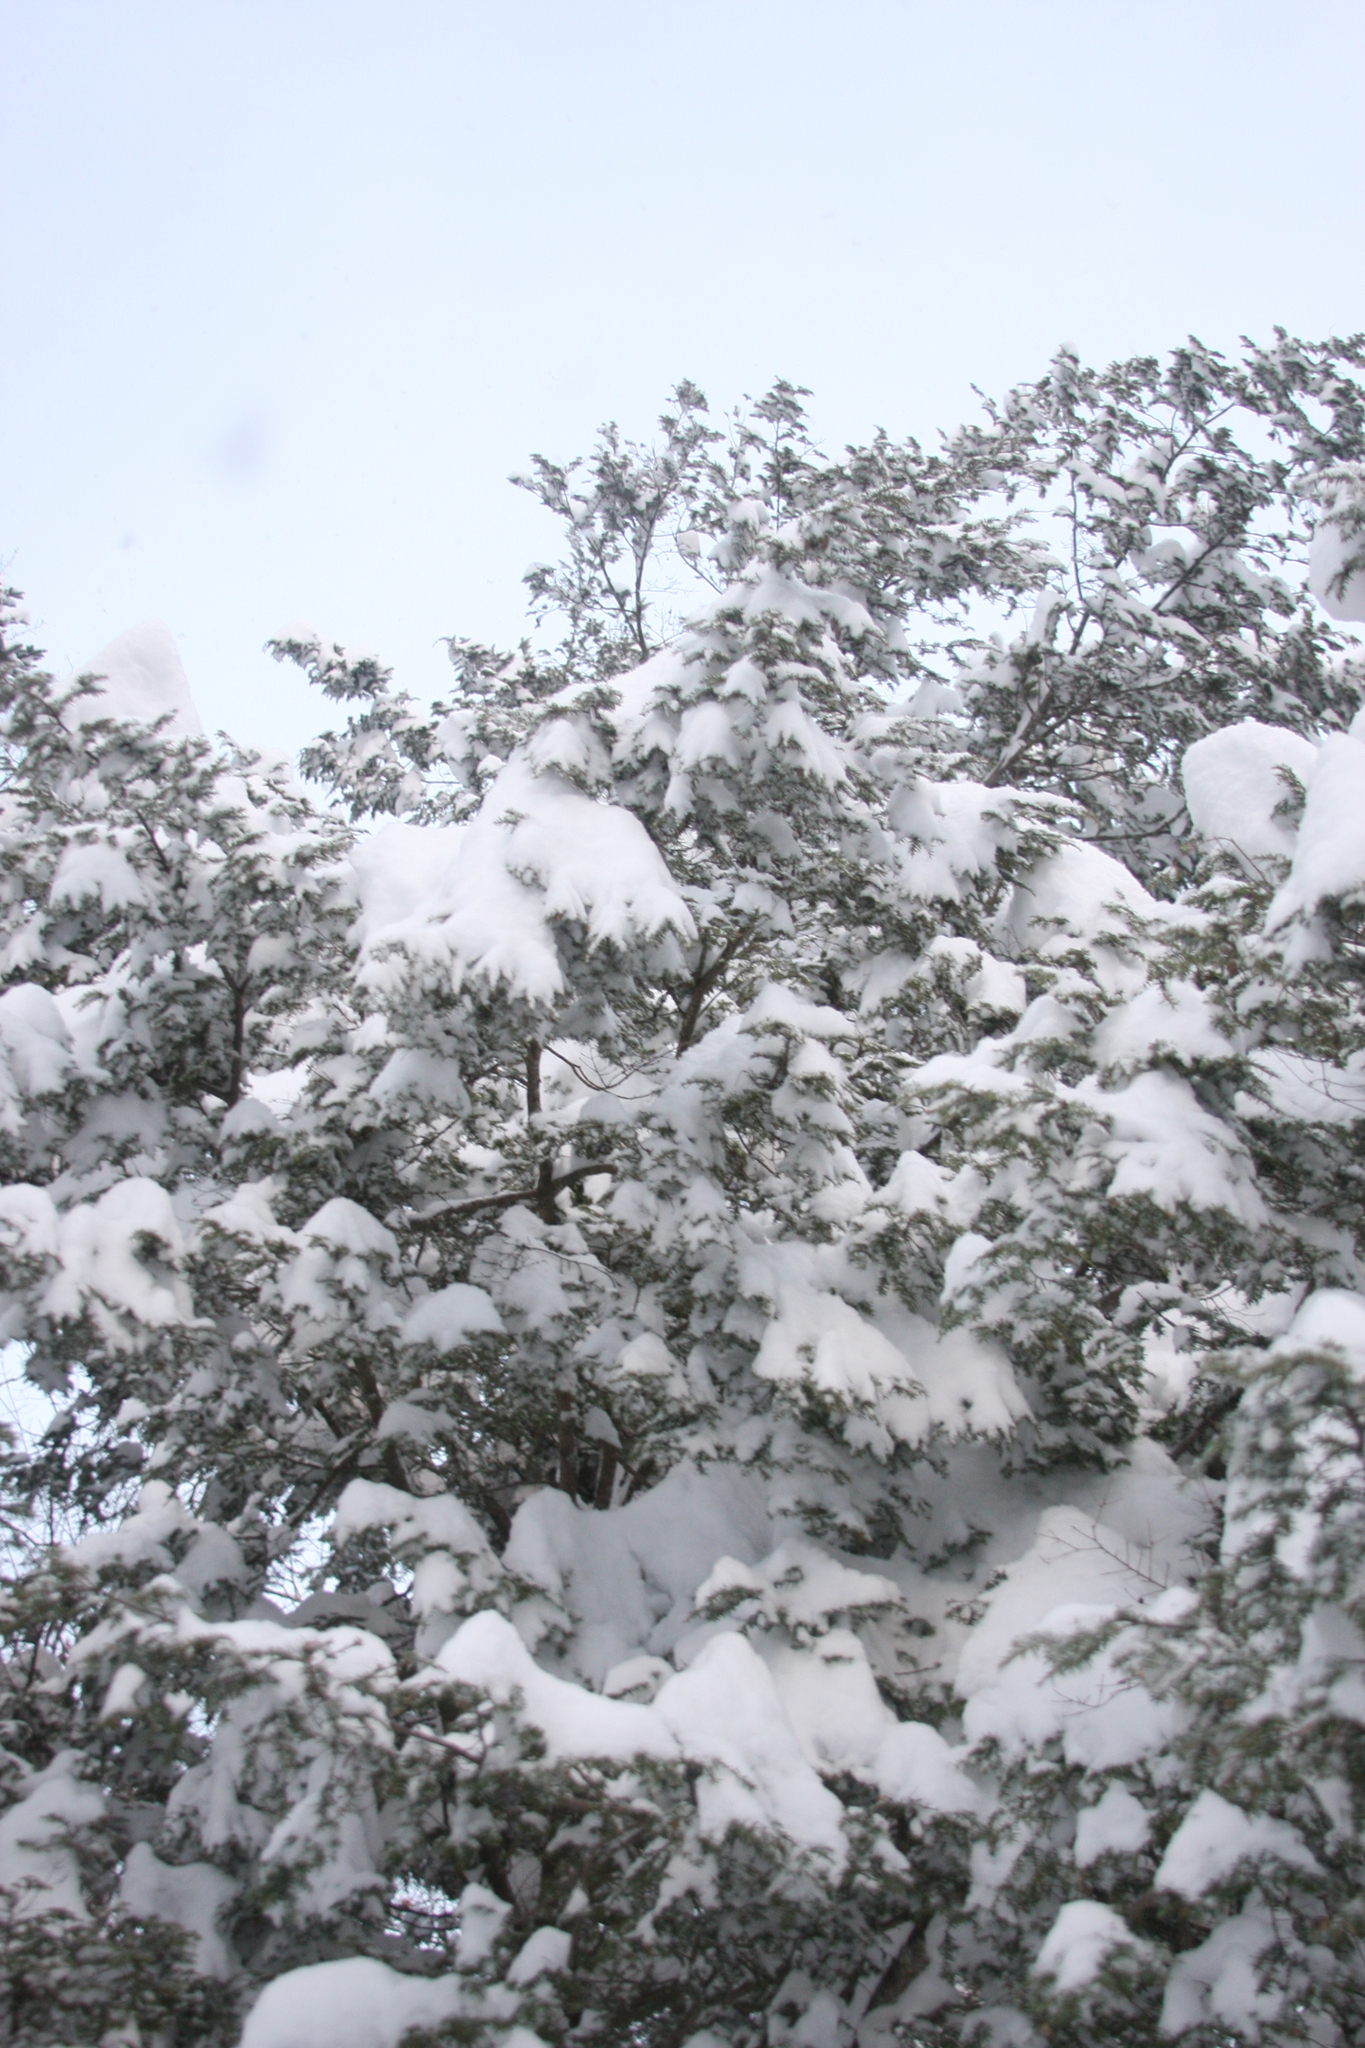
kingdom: Plantae
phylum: Tracheophyta
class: Pinopsida
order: Pinales
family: Pinaceae
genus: Tsuga
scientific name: Tsuga canadensis
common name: Eastern hemlock
